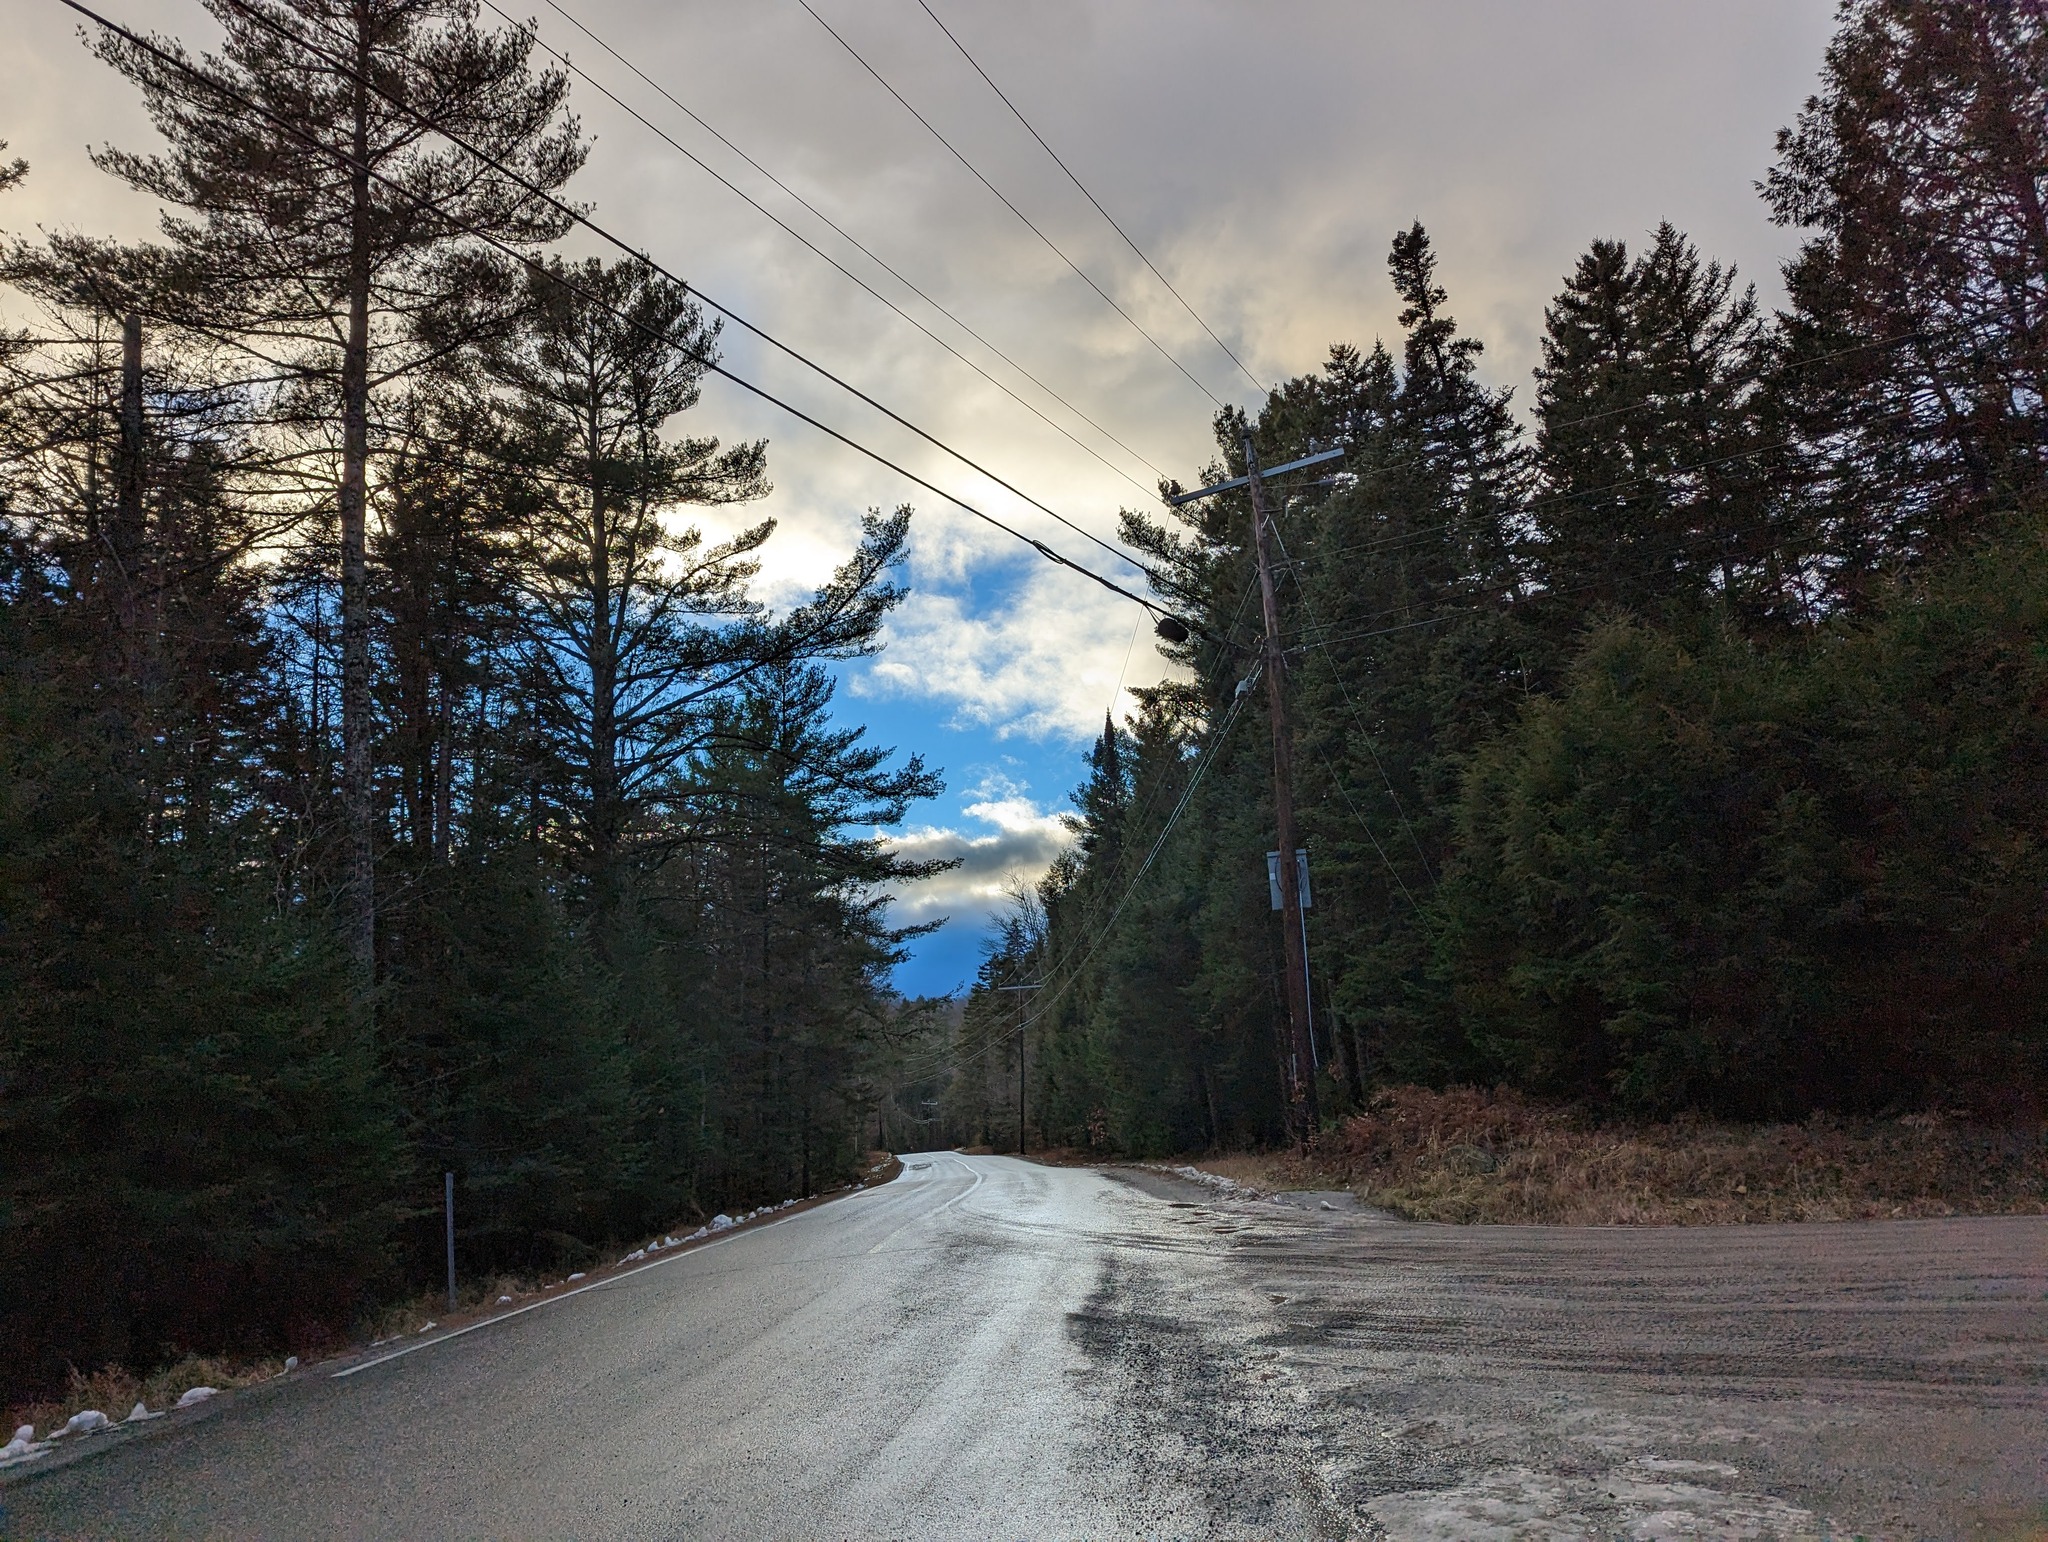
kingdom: Plantae
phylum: Tracheophyta
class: Pinopsida
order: Pinales
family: Pinaceae
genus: Pinus
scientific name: Pinus strobus
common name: Weymouth pine
